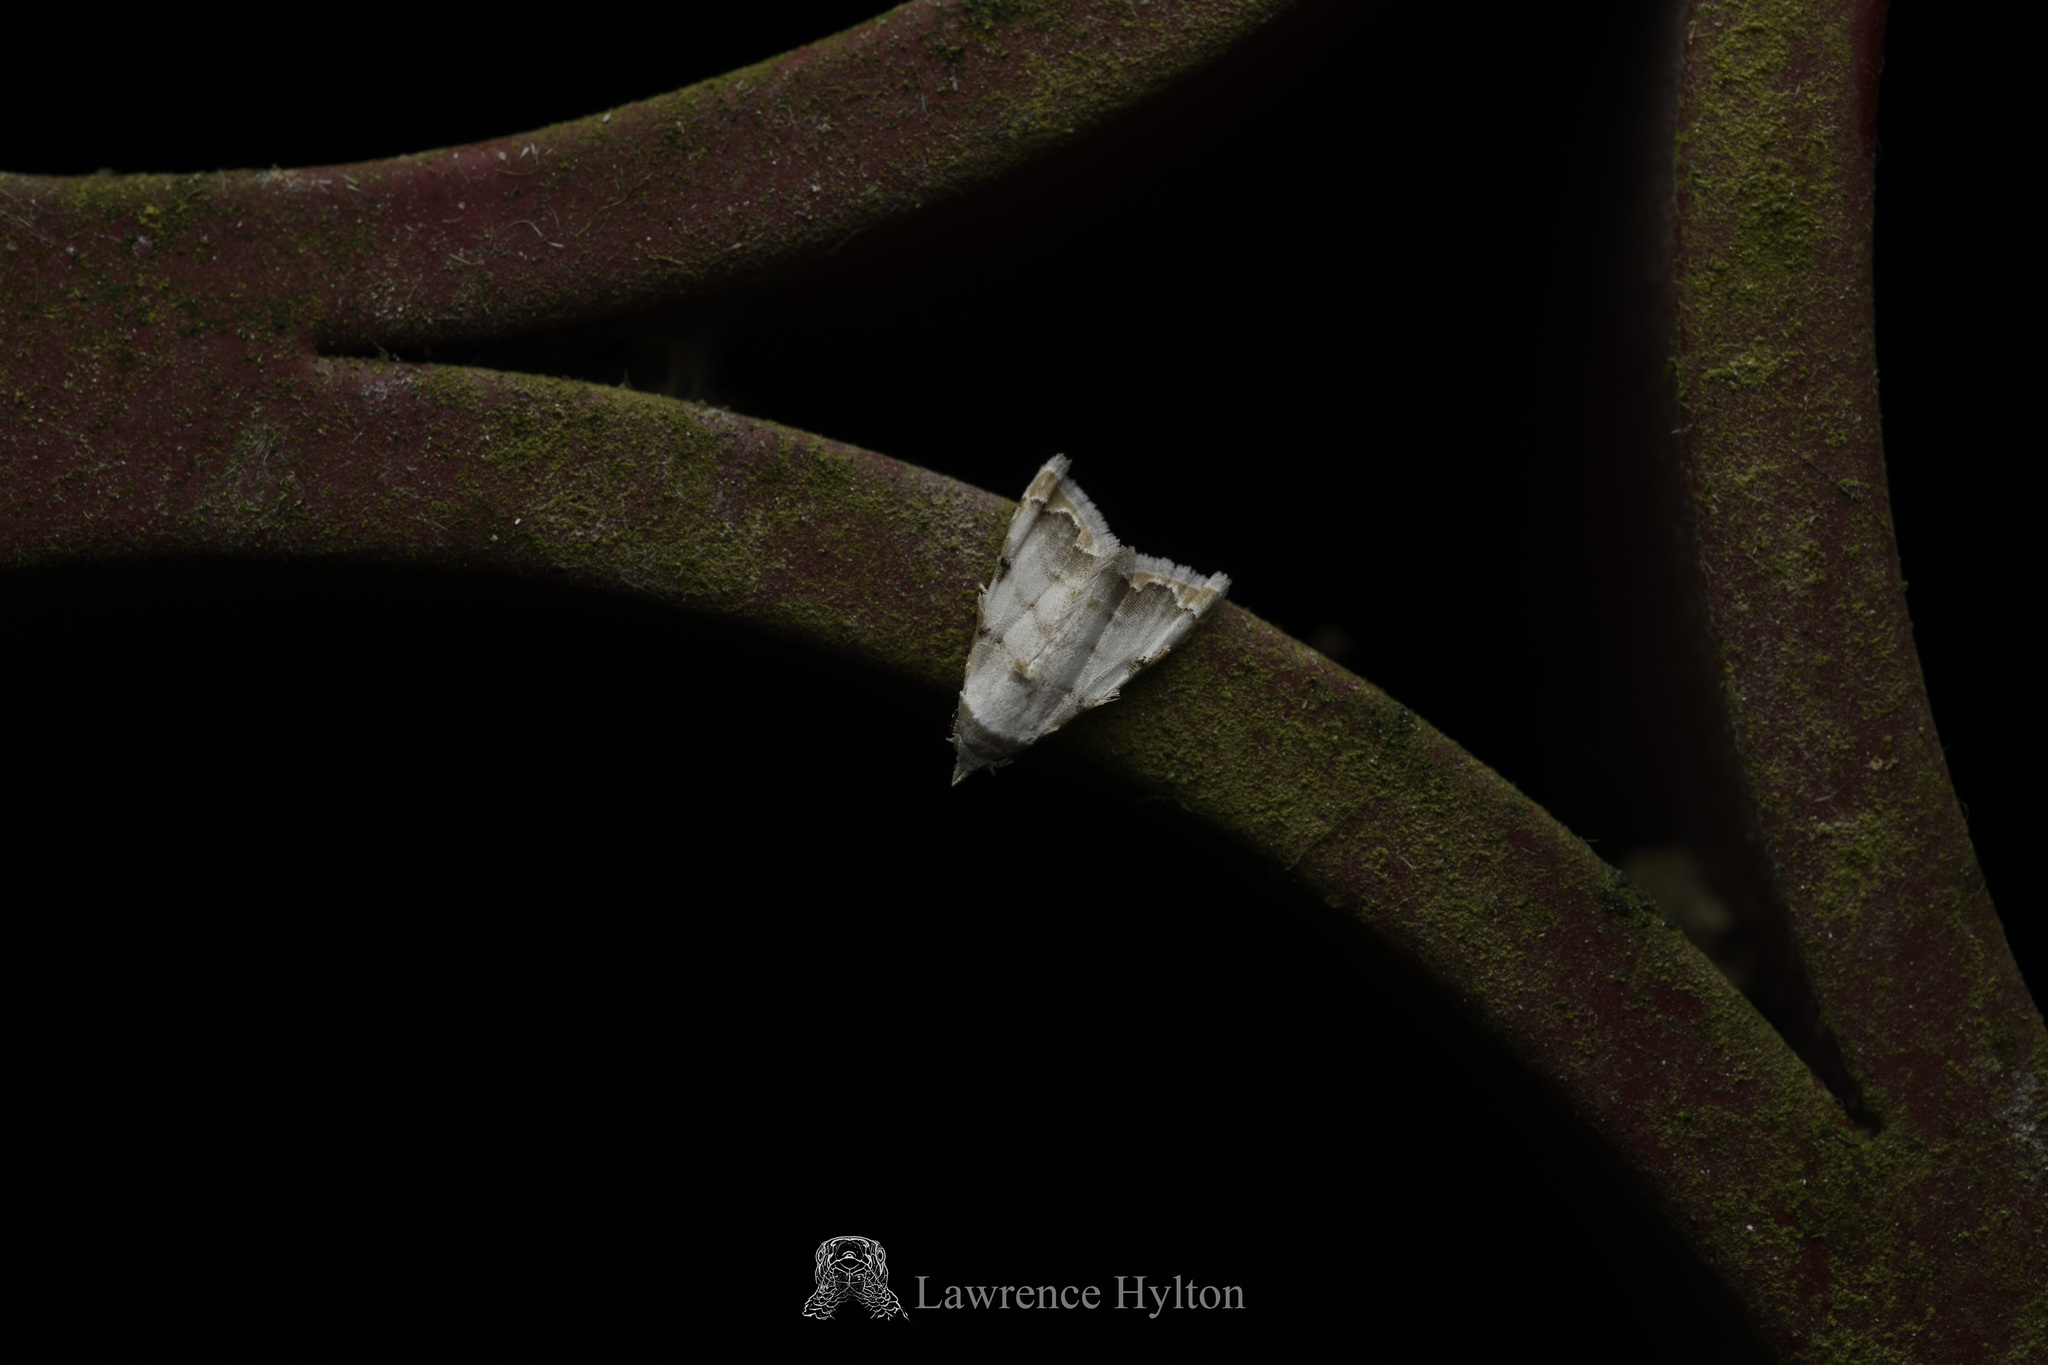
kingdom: Animalia
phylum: Arthropoda
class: Insecta
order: Lepidoptera
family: Nolidae
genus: Nola
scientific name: Nola marginata
